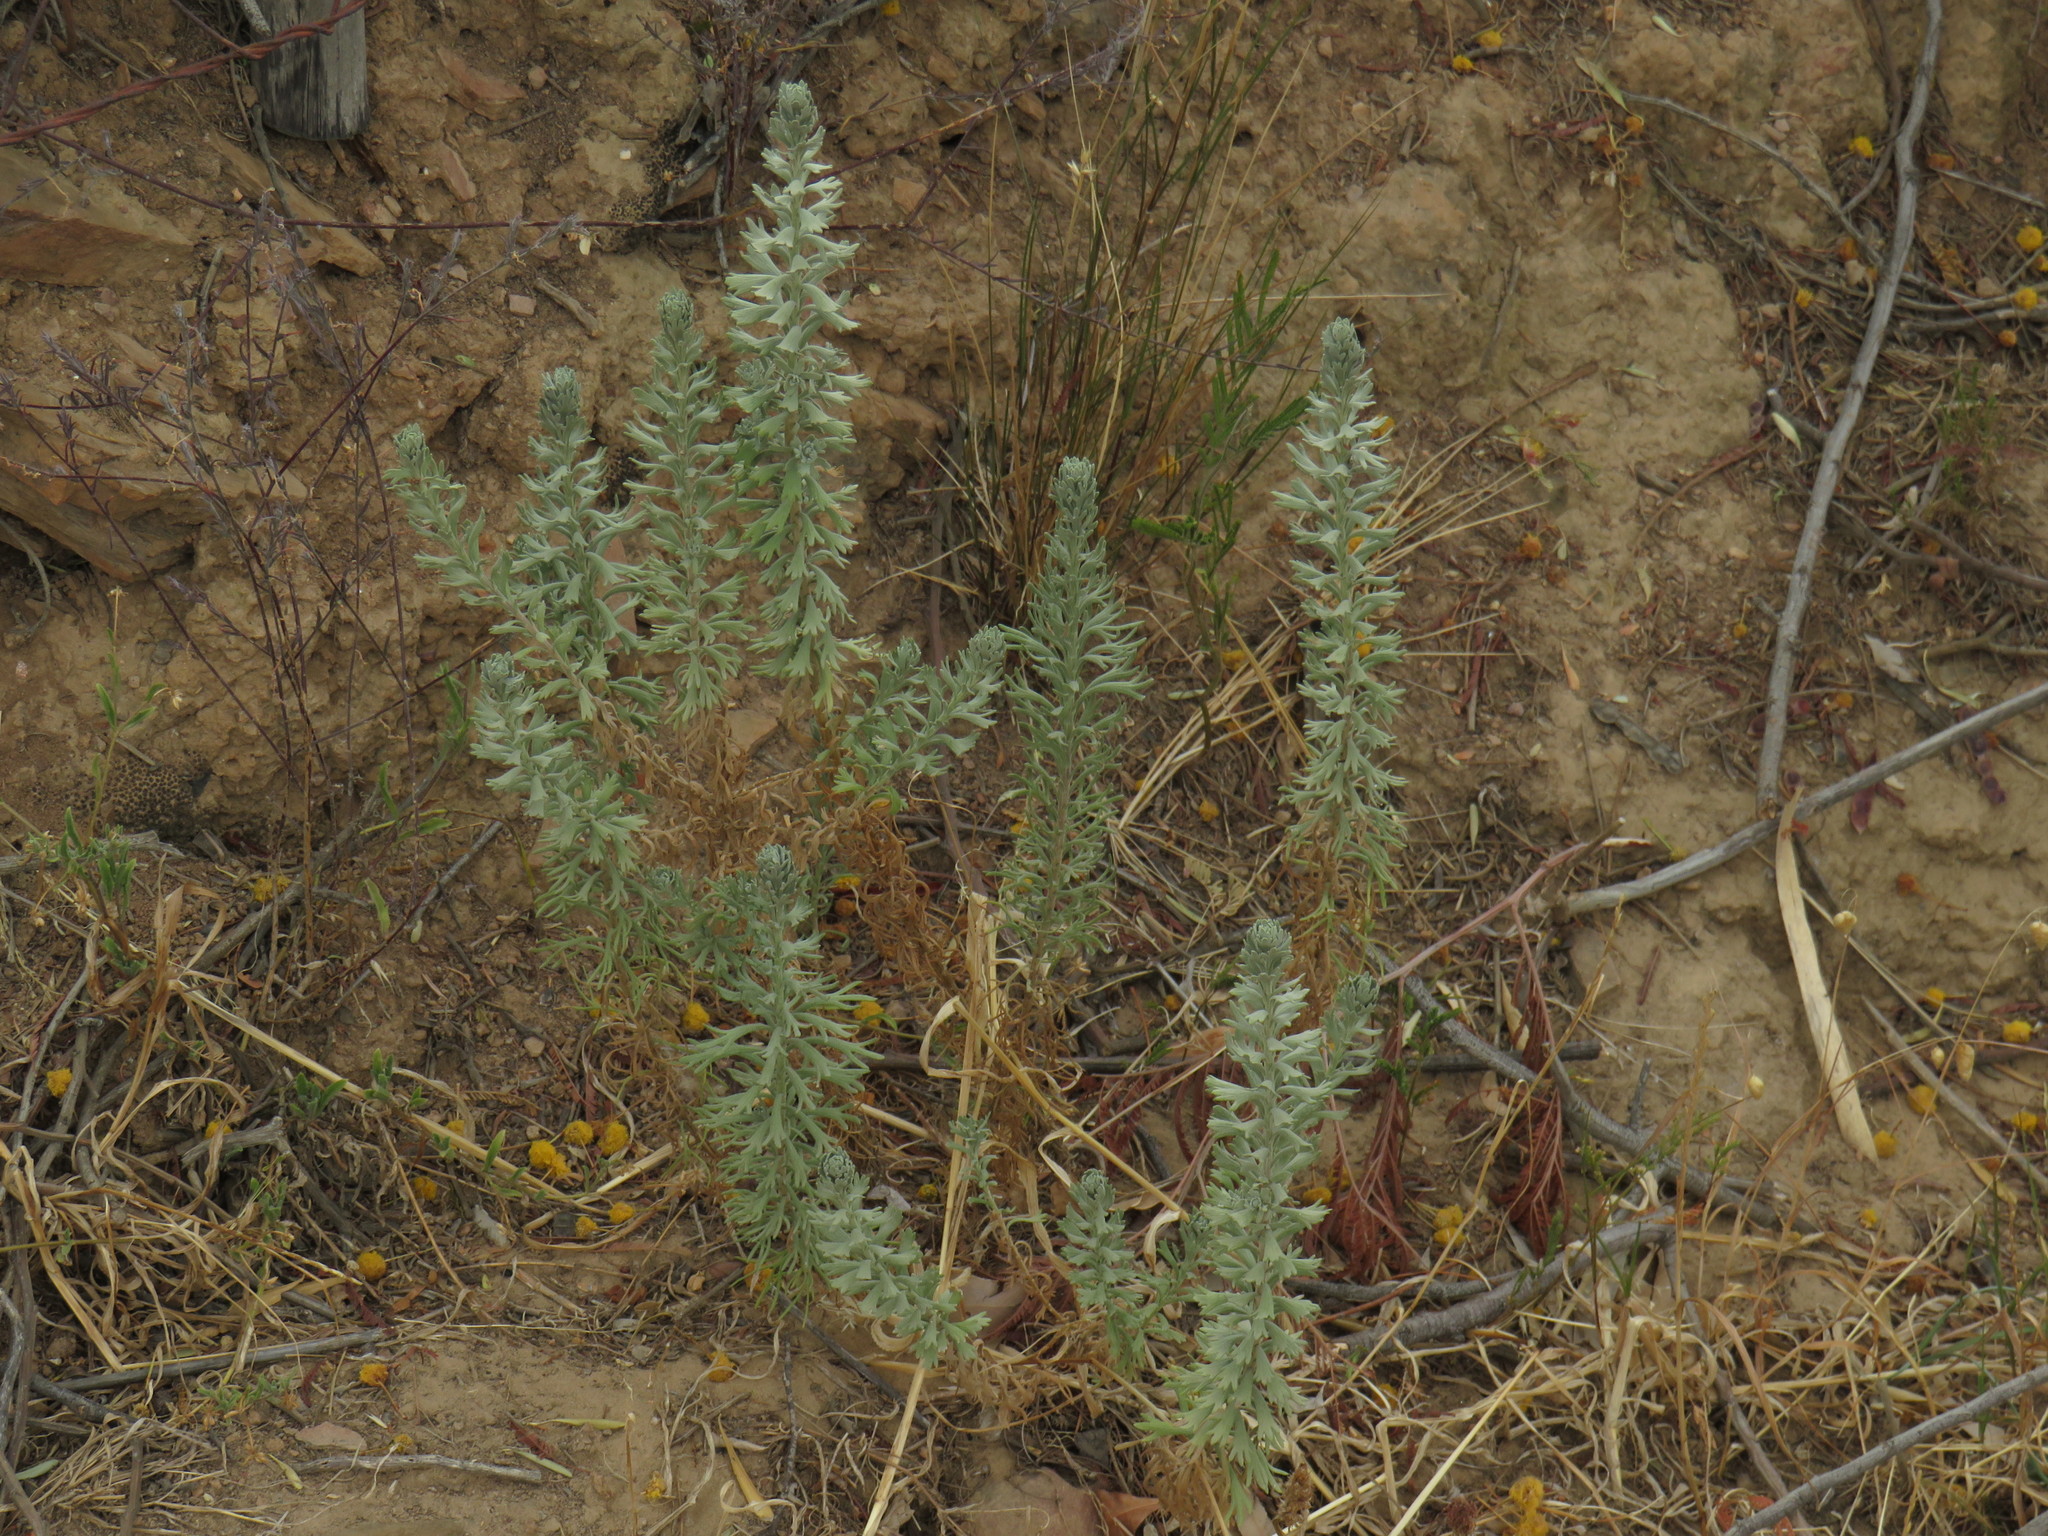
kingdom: Plantae
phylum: Tracheophyta
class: Magnoliopsida
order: Asterales
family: Asteraceae
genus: Athanasia
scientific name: Athanasia trifurcata
